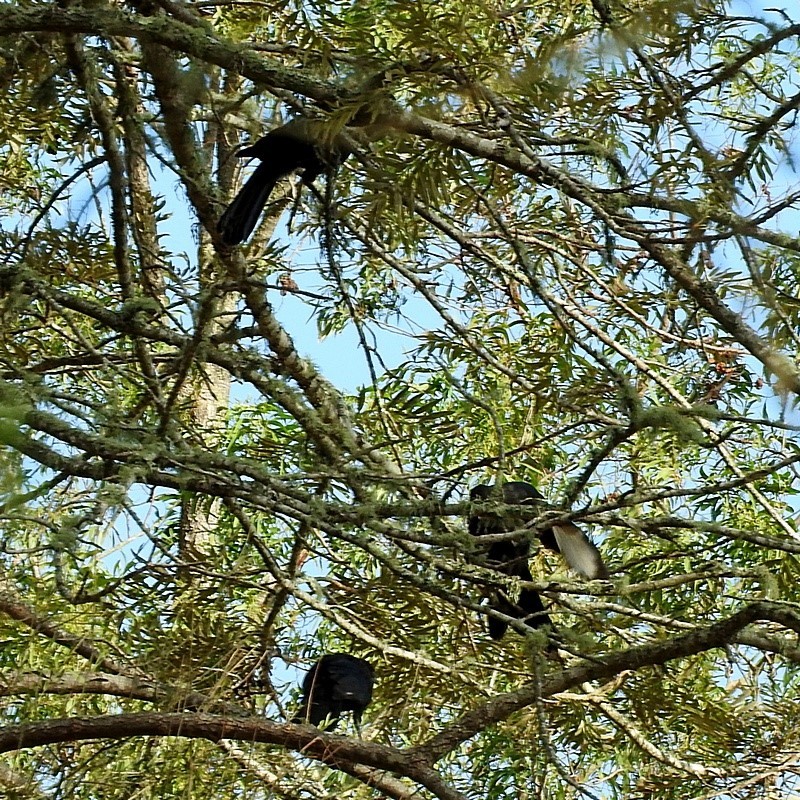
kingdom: Animalia
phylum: Chordata
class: Aves
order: Passeriformes
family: Corcoracidae
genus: Corcorax
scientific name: Corcorax melanoramphos
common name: White-winged chough
